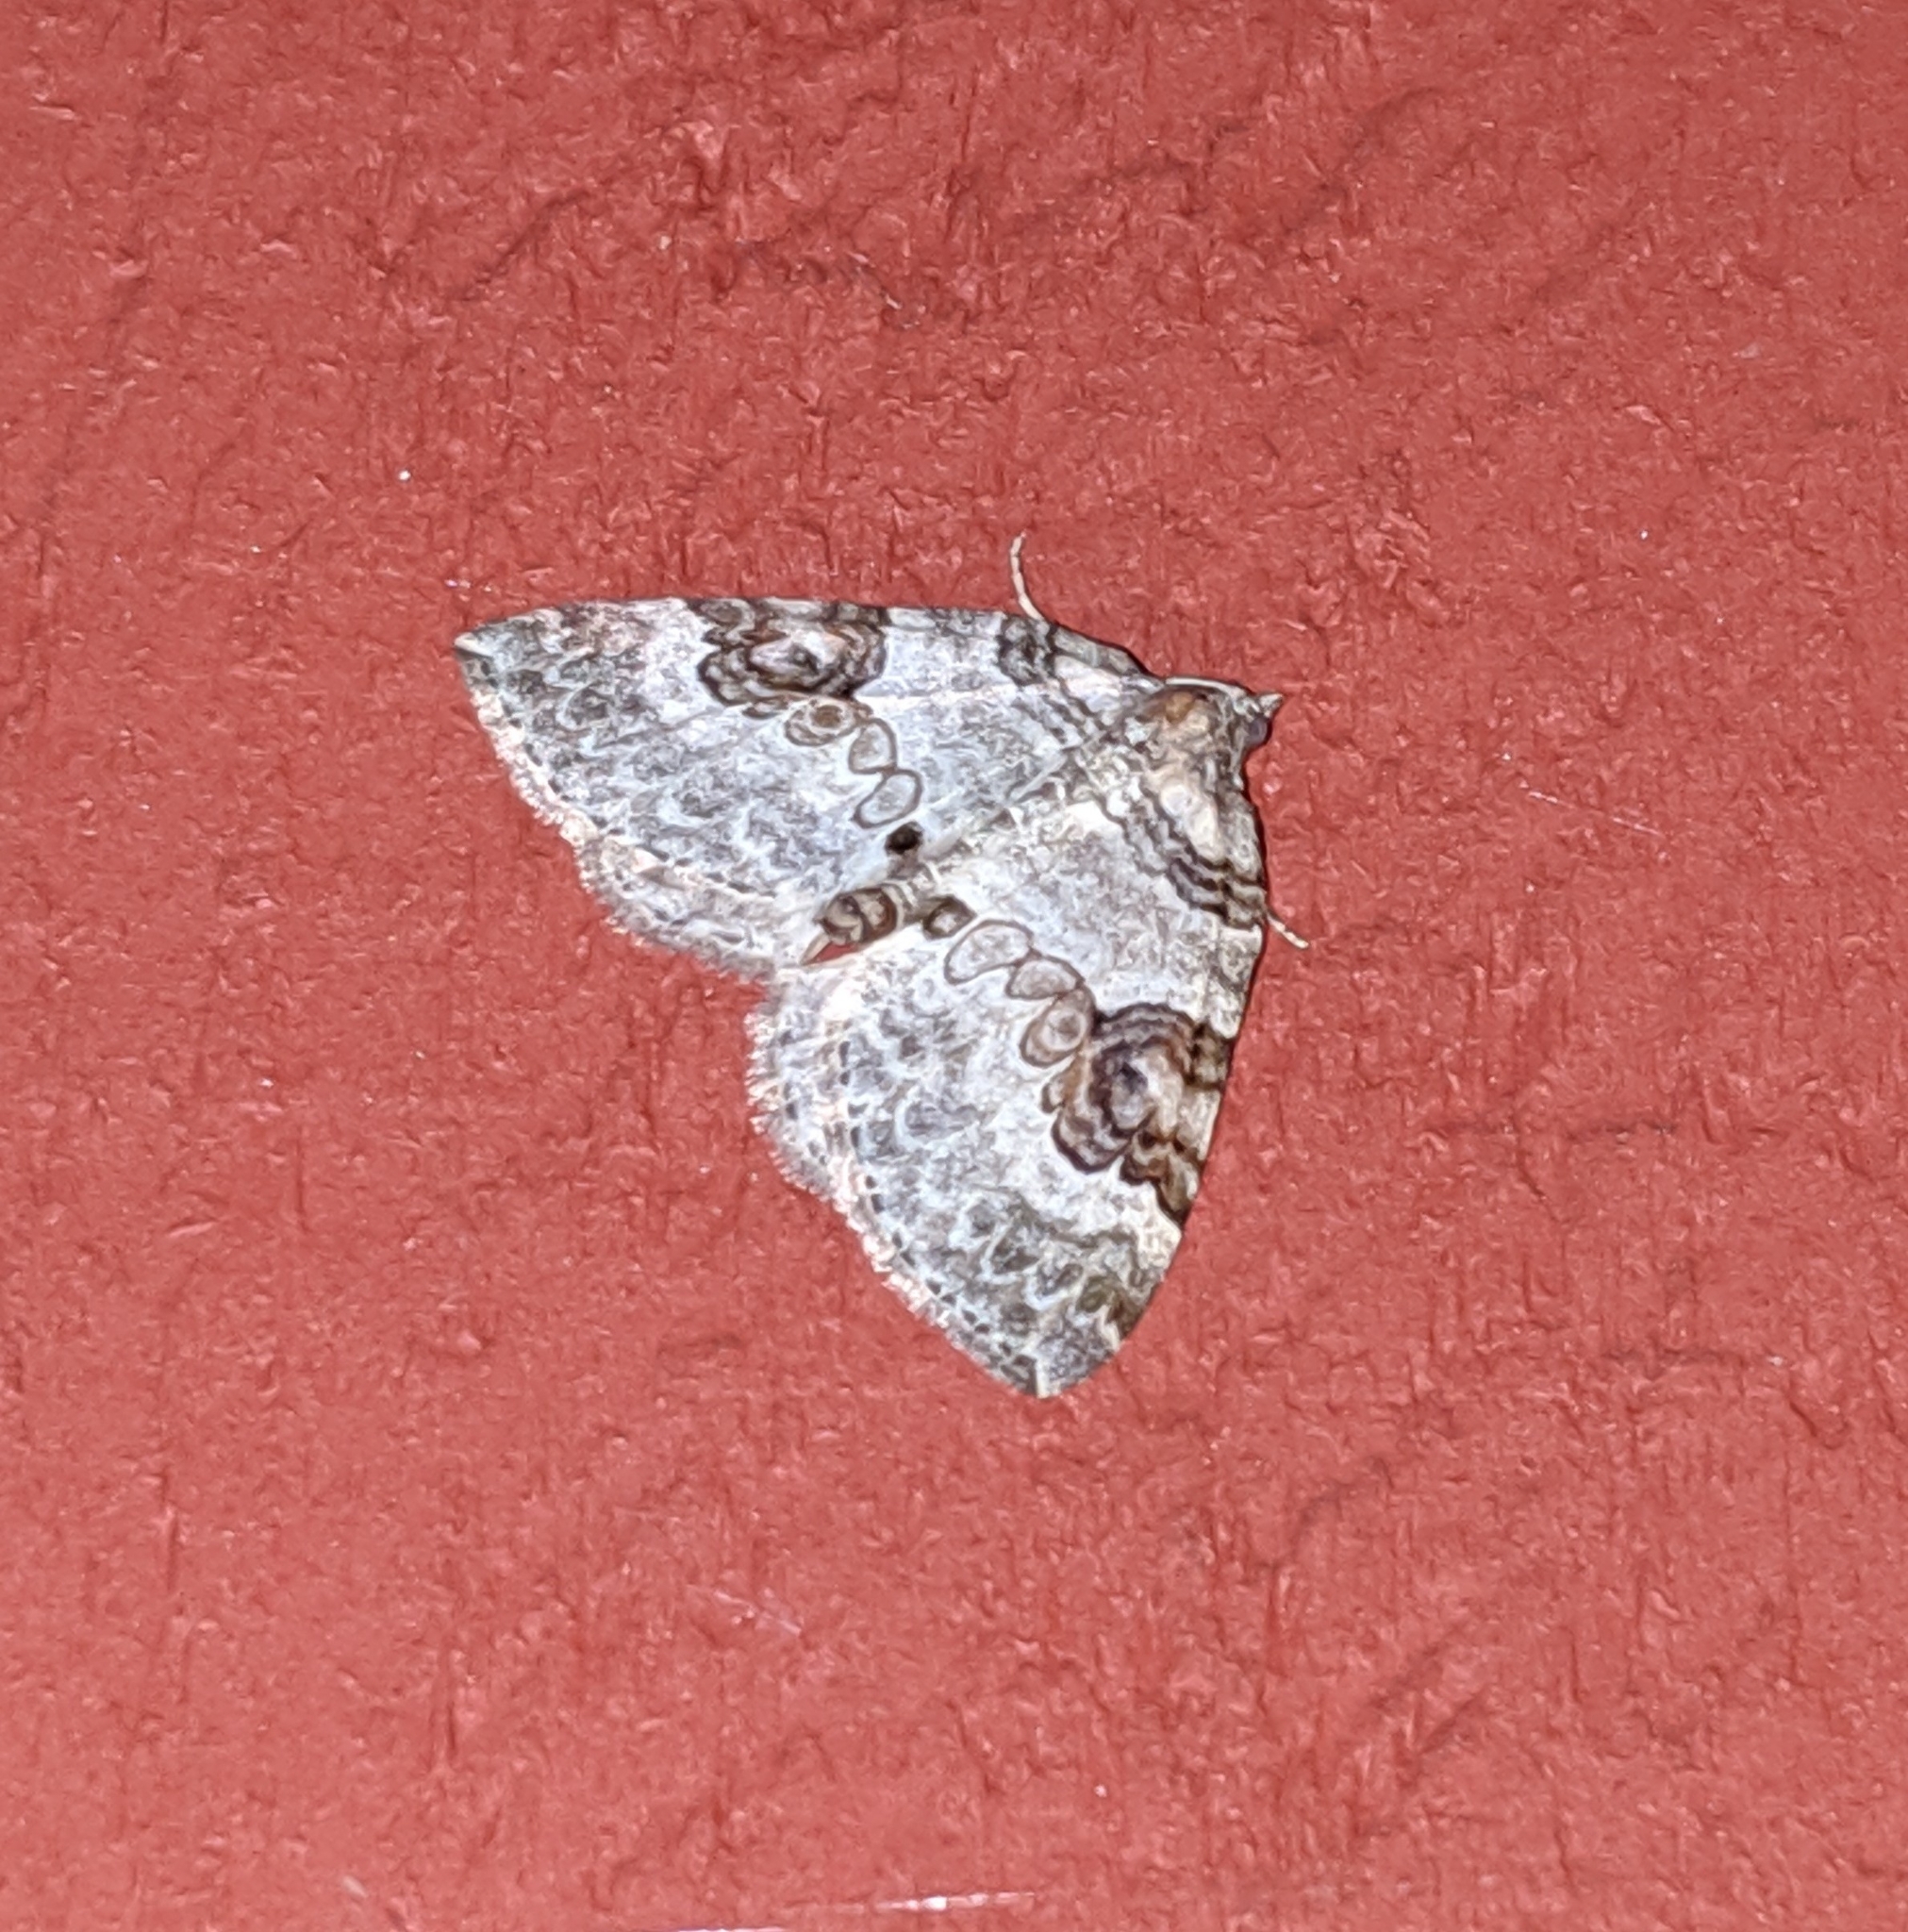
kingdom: Animalia
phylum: Arthropoda
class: Insecta
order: Lepidoptera
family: Geometridae
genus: Plemyria
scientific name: Plemyria georgii
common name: George's carpet moth
